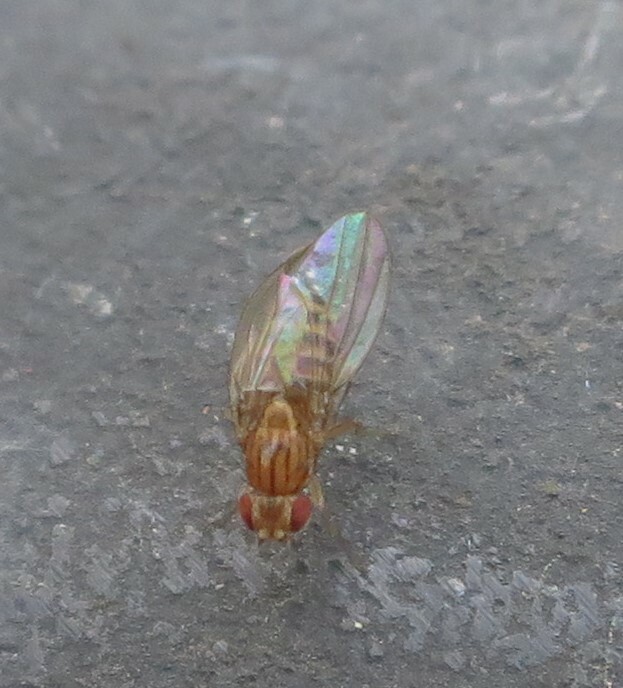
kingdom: Animalia
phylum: Arthropoda
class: Insecta
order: Diptera
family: Drosophilidae
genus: Drosophila
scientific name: Drosophila busckii
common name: Pomace fly
